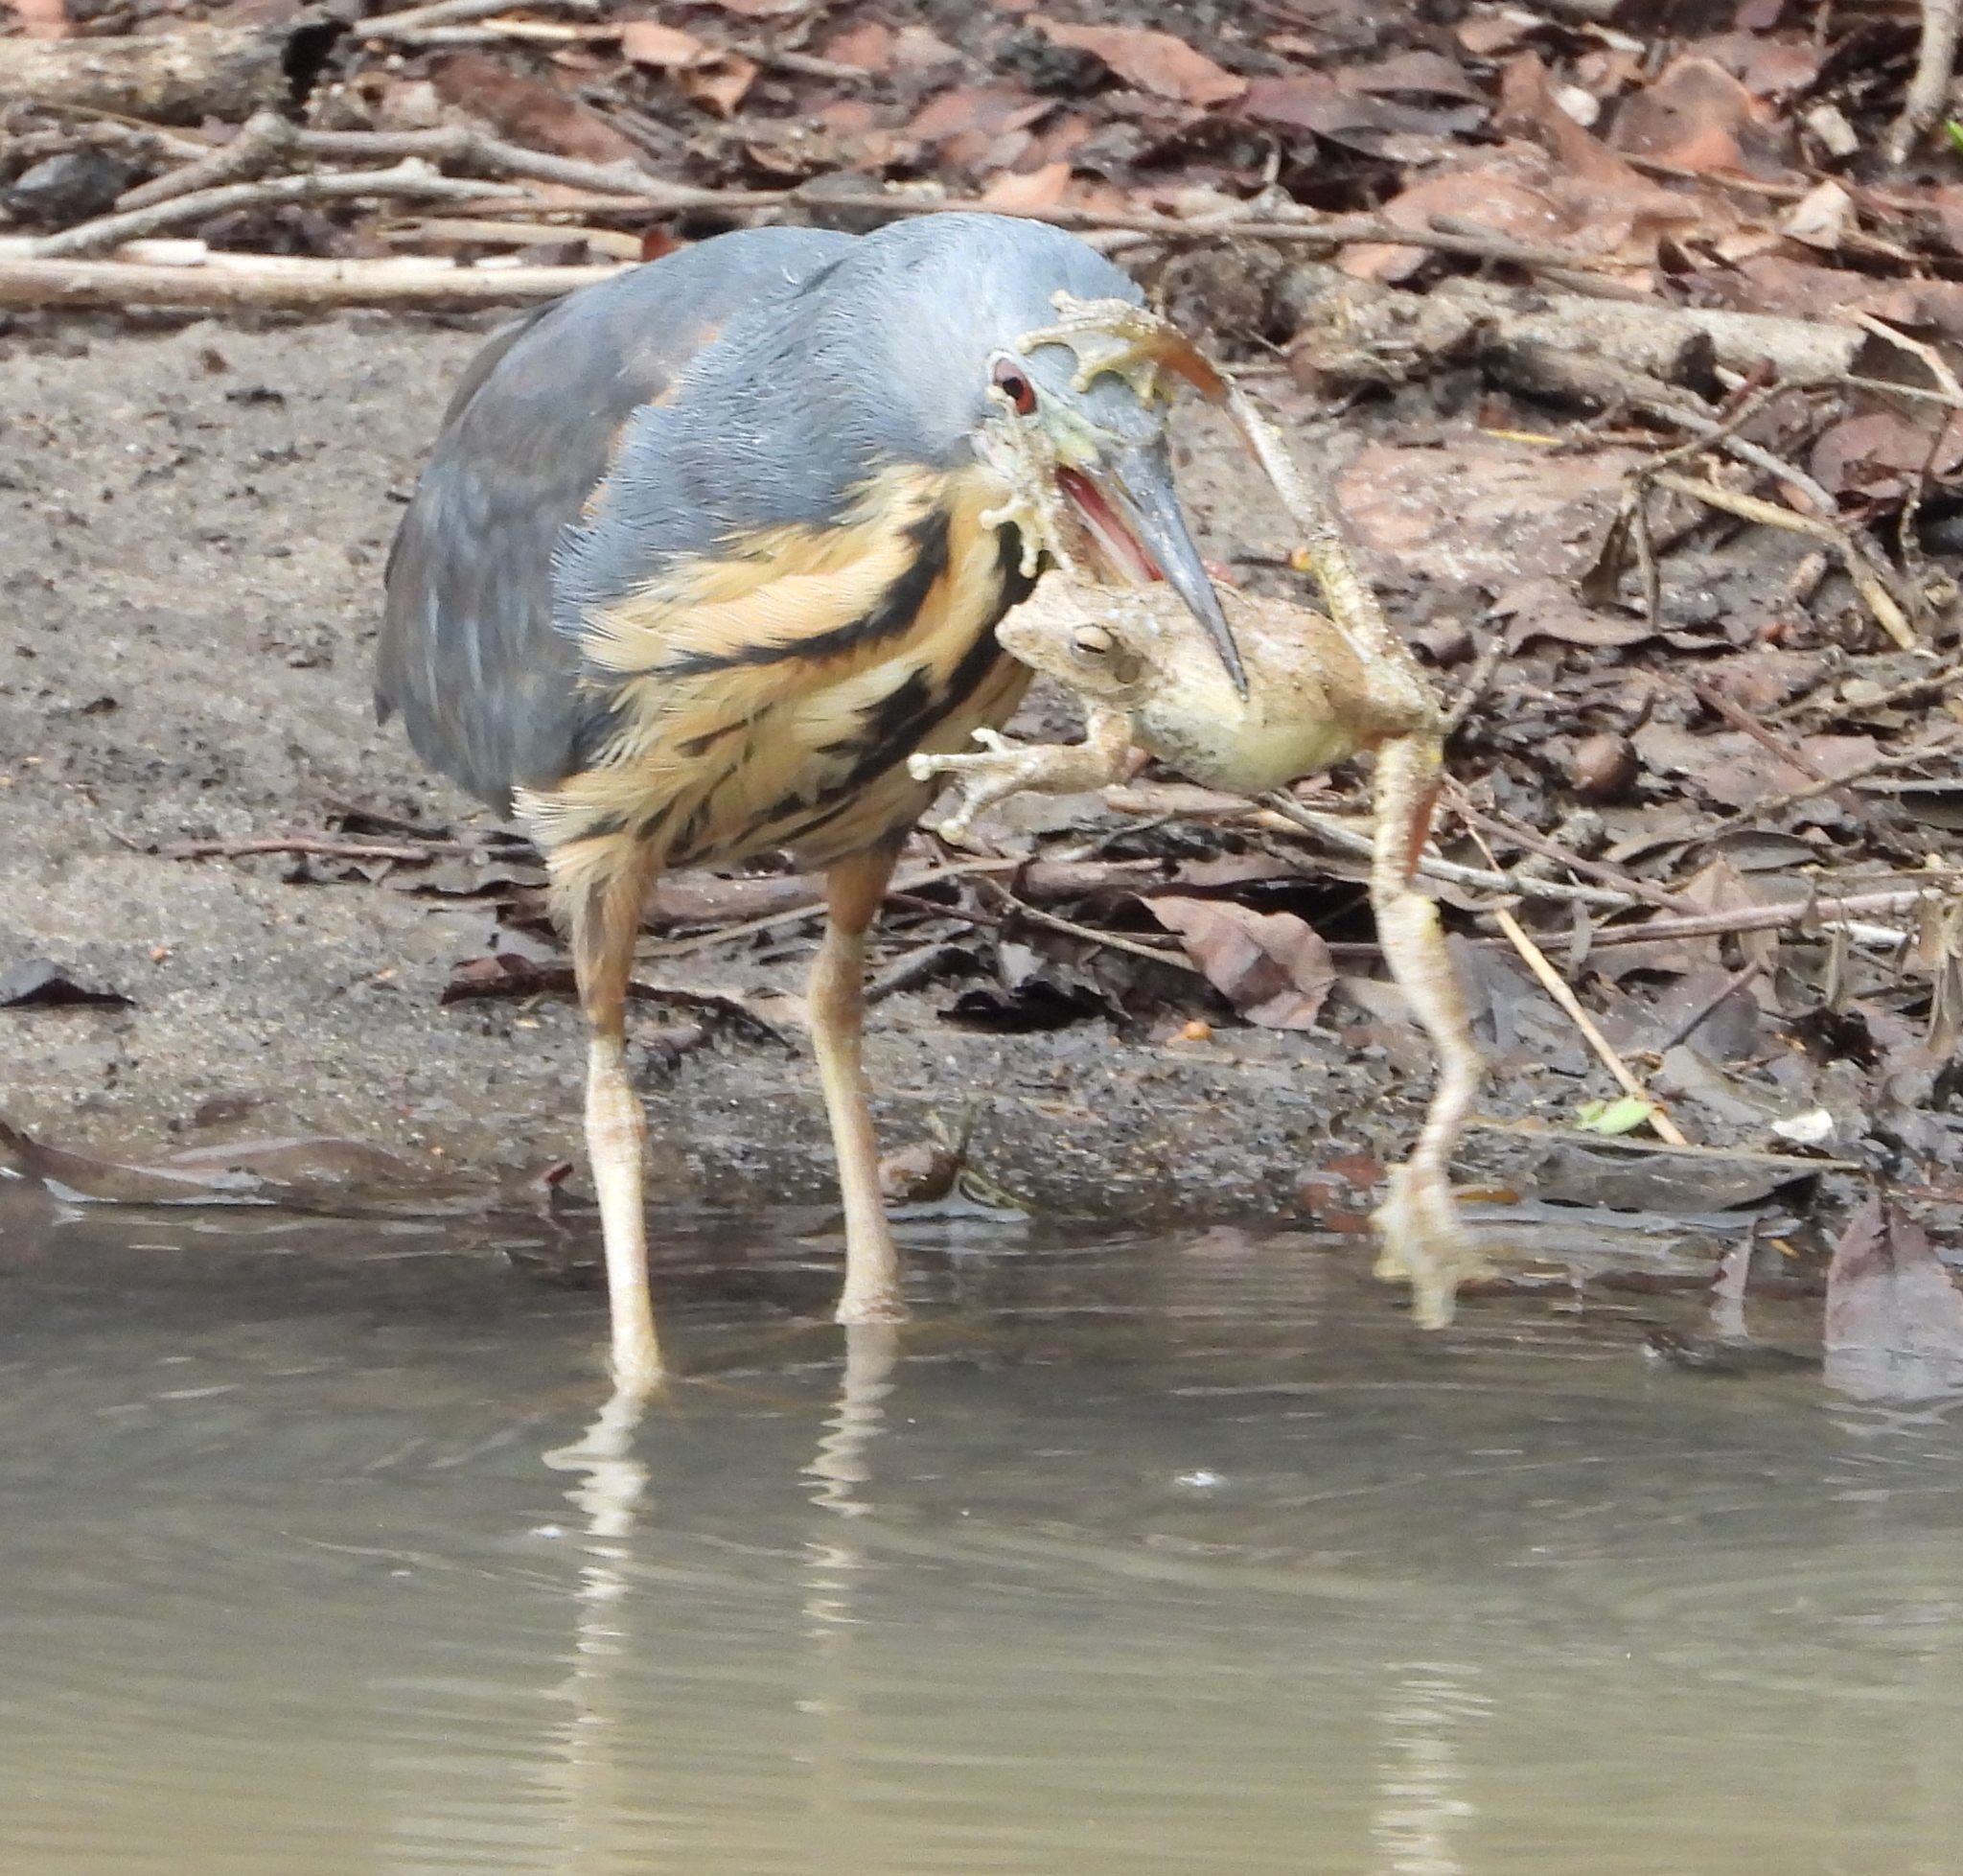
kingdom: Animalia
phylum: Chordata
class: Aves
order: Pelecaniformes
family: Ardeidae
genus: Ixobrychus
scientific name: Ixobrychus sturmii
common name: Dwarf bittern
